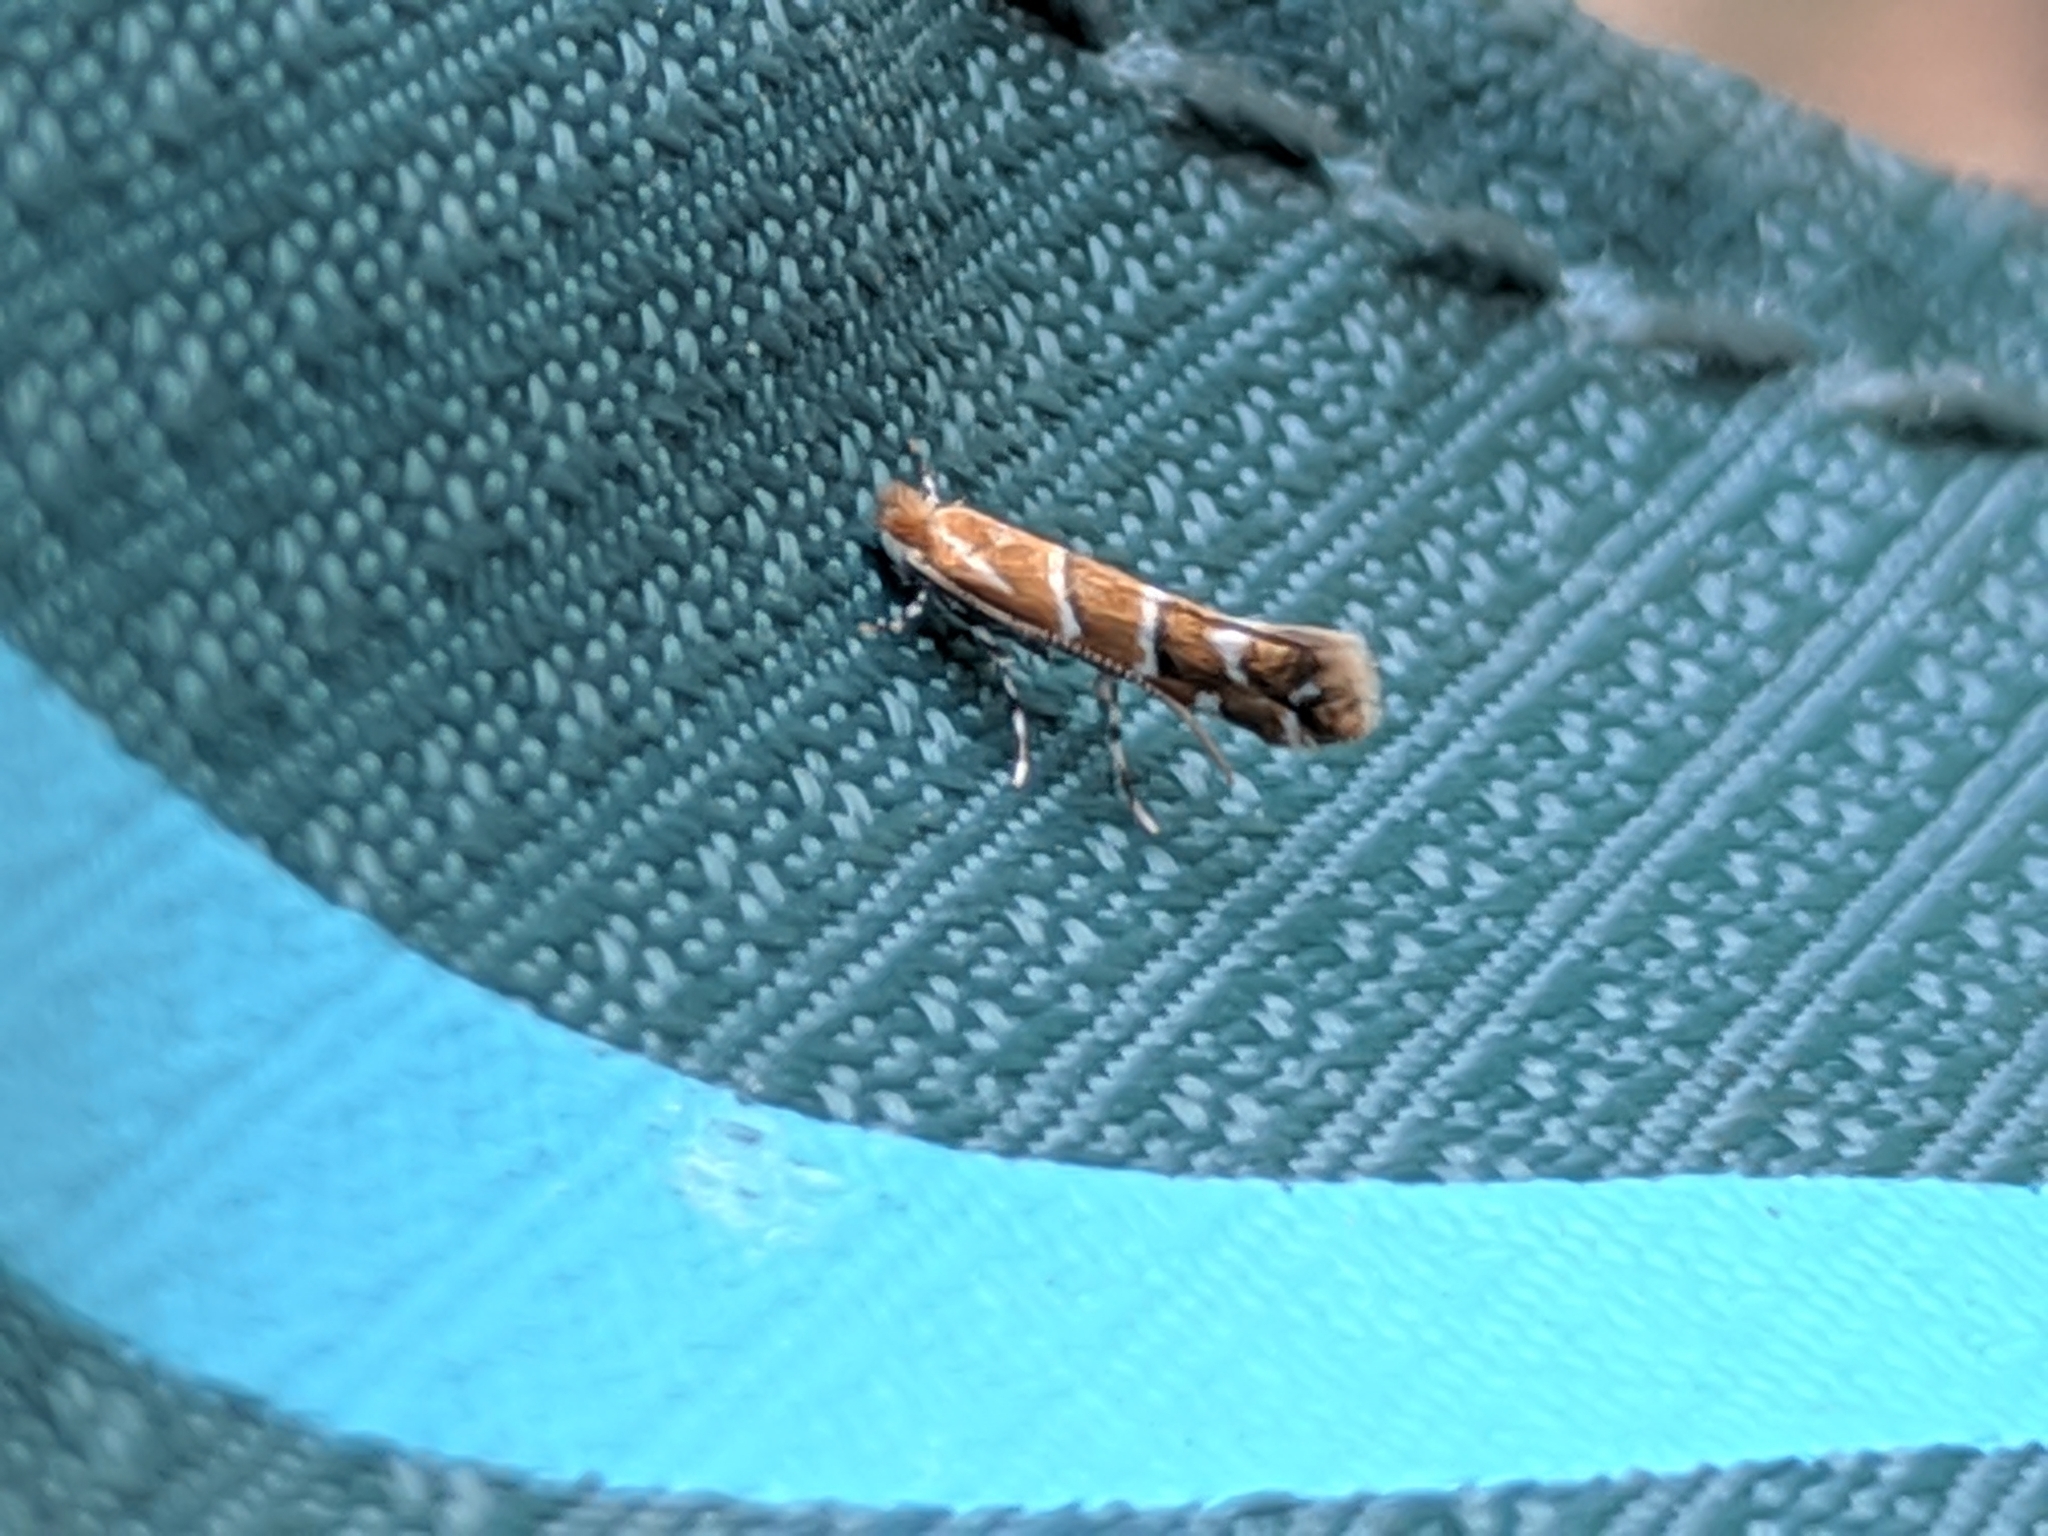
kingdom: Animalia
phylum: Arthropoda
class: Insecta
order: Lepidoptera
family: Gracillariidae
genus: Cameraria
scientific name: Cameraria ohridella
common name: Horse-chestnut leaf-miner
